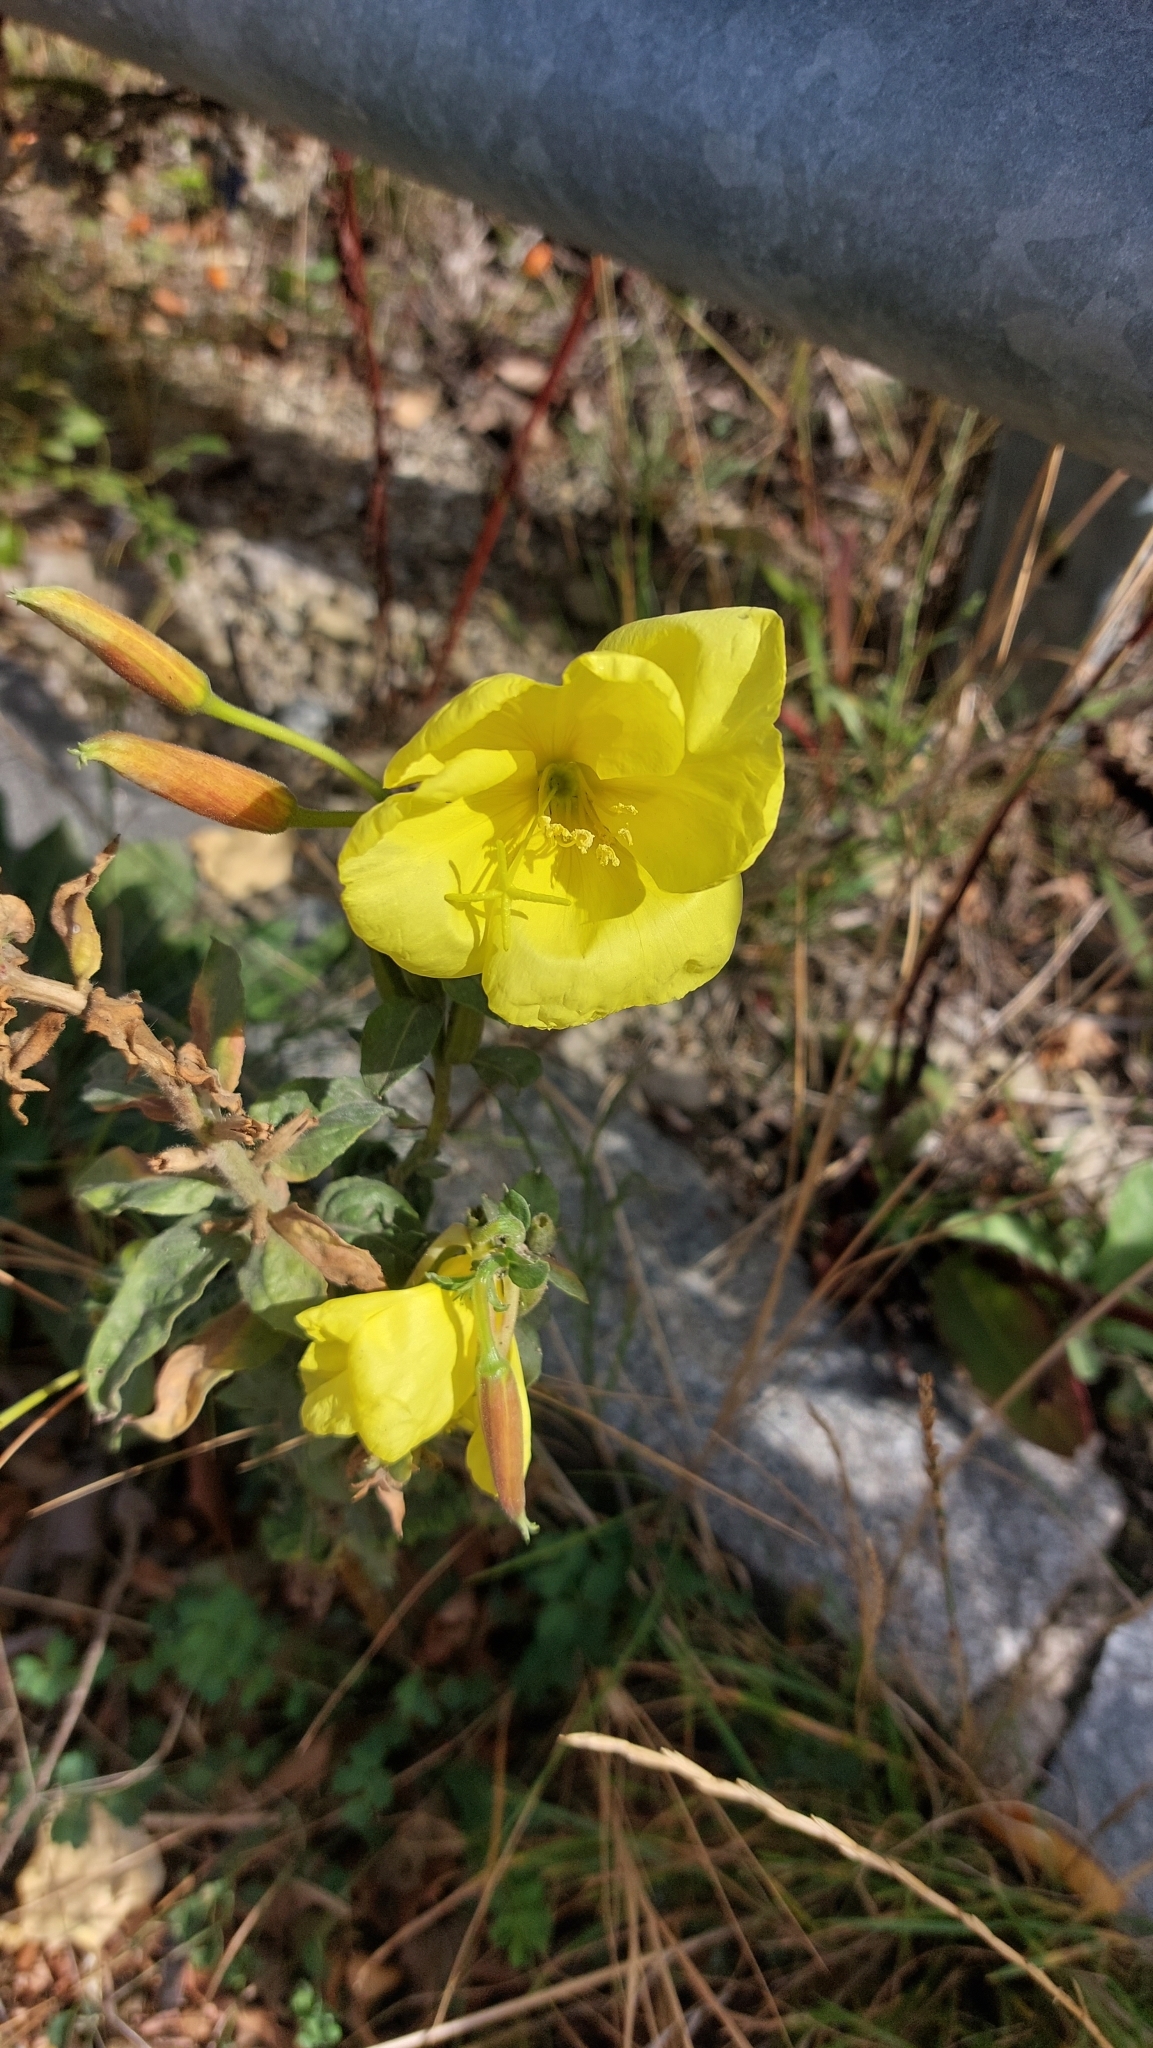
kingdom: Plantae
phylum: Tracheophyta
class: Magnoliopsida
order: Myrtales
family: Onagraceae
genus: Oenothera
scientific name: Oenothera glazioviana
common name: Large-flowered evening-primrose
